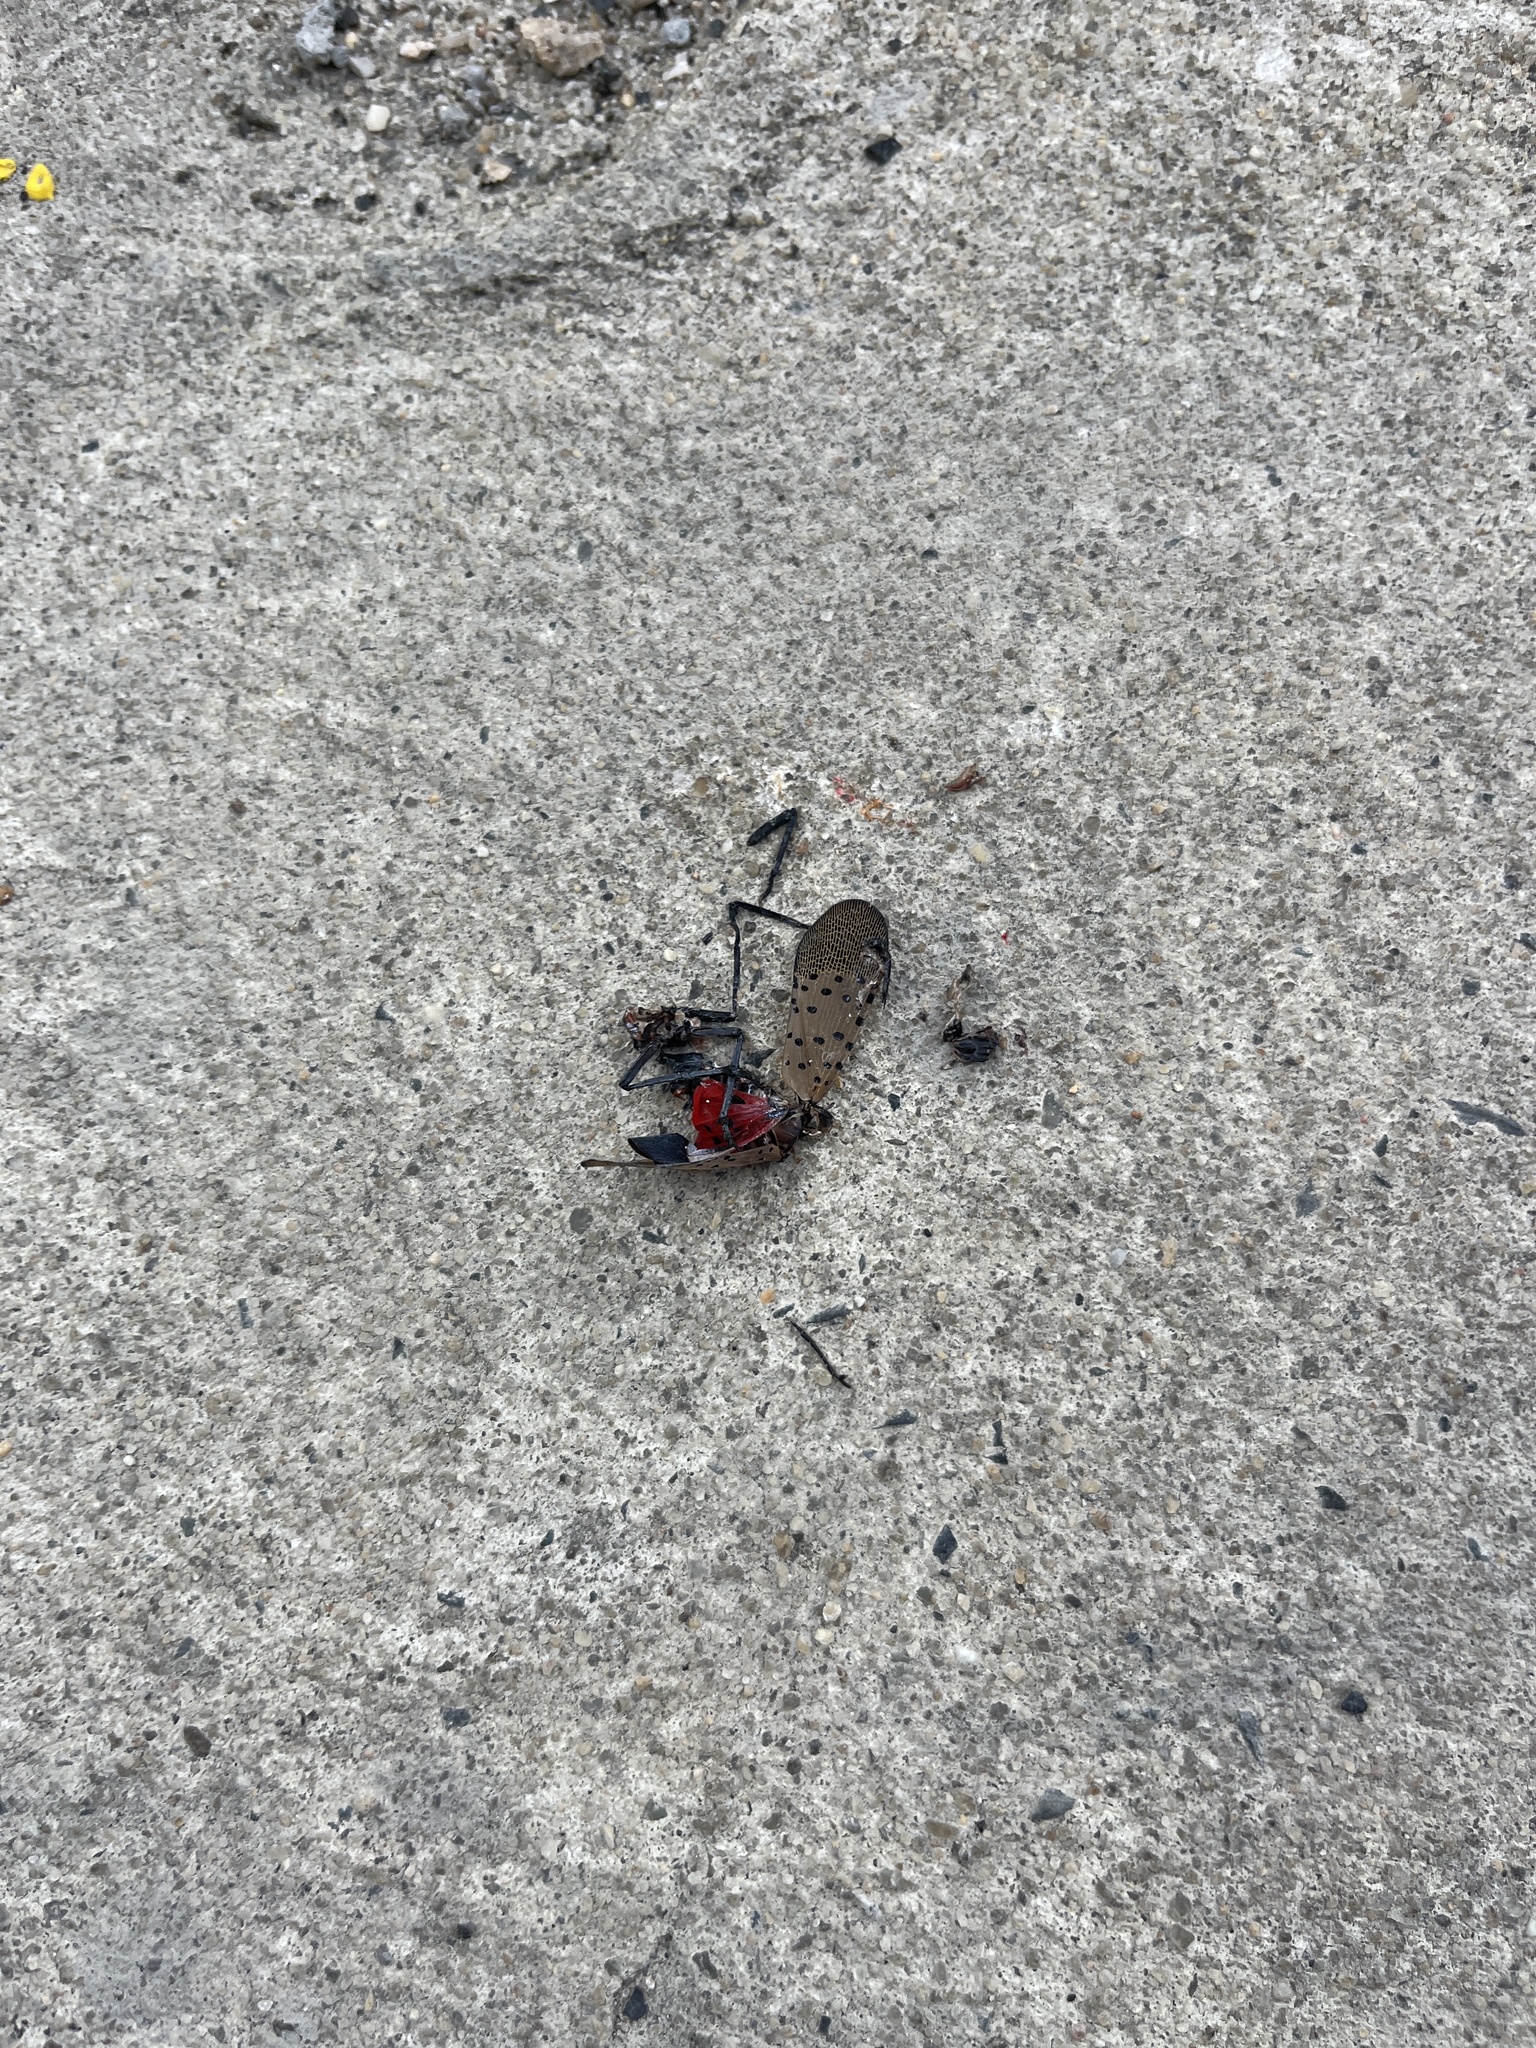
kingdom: Animalia
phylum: Arthropoda
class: Insecta
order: Hemiptera
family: Fulgoridae
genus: Lycorma
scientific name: Lycorma delicatula
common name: Spotted lanternfly
